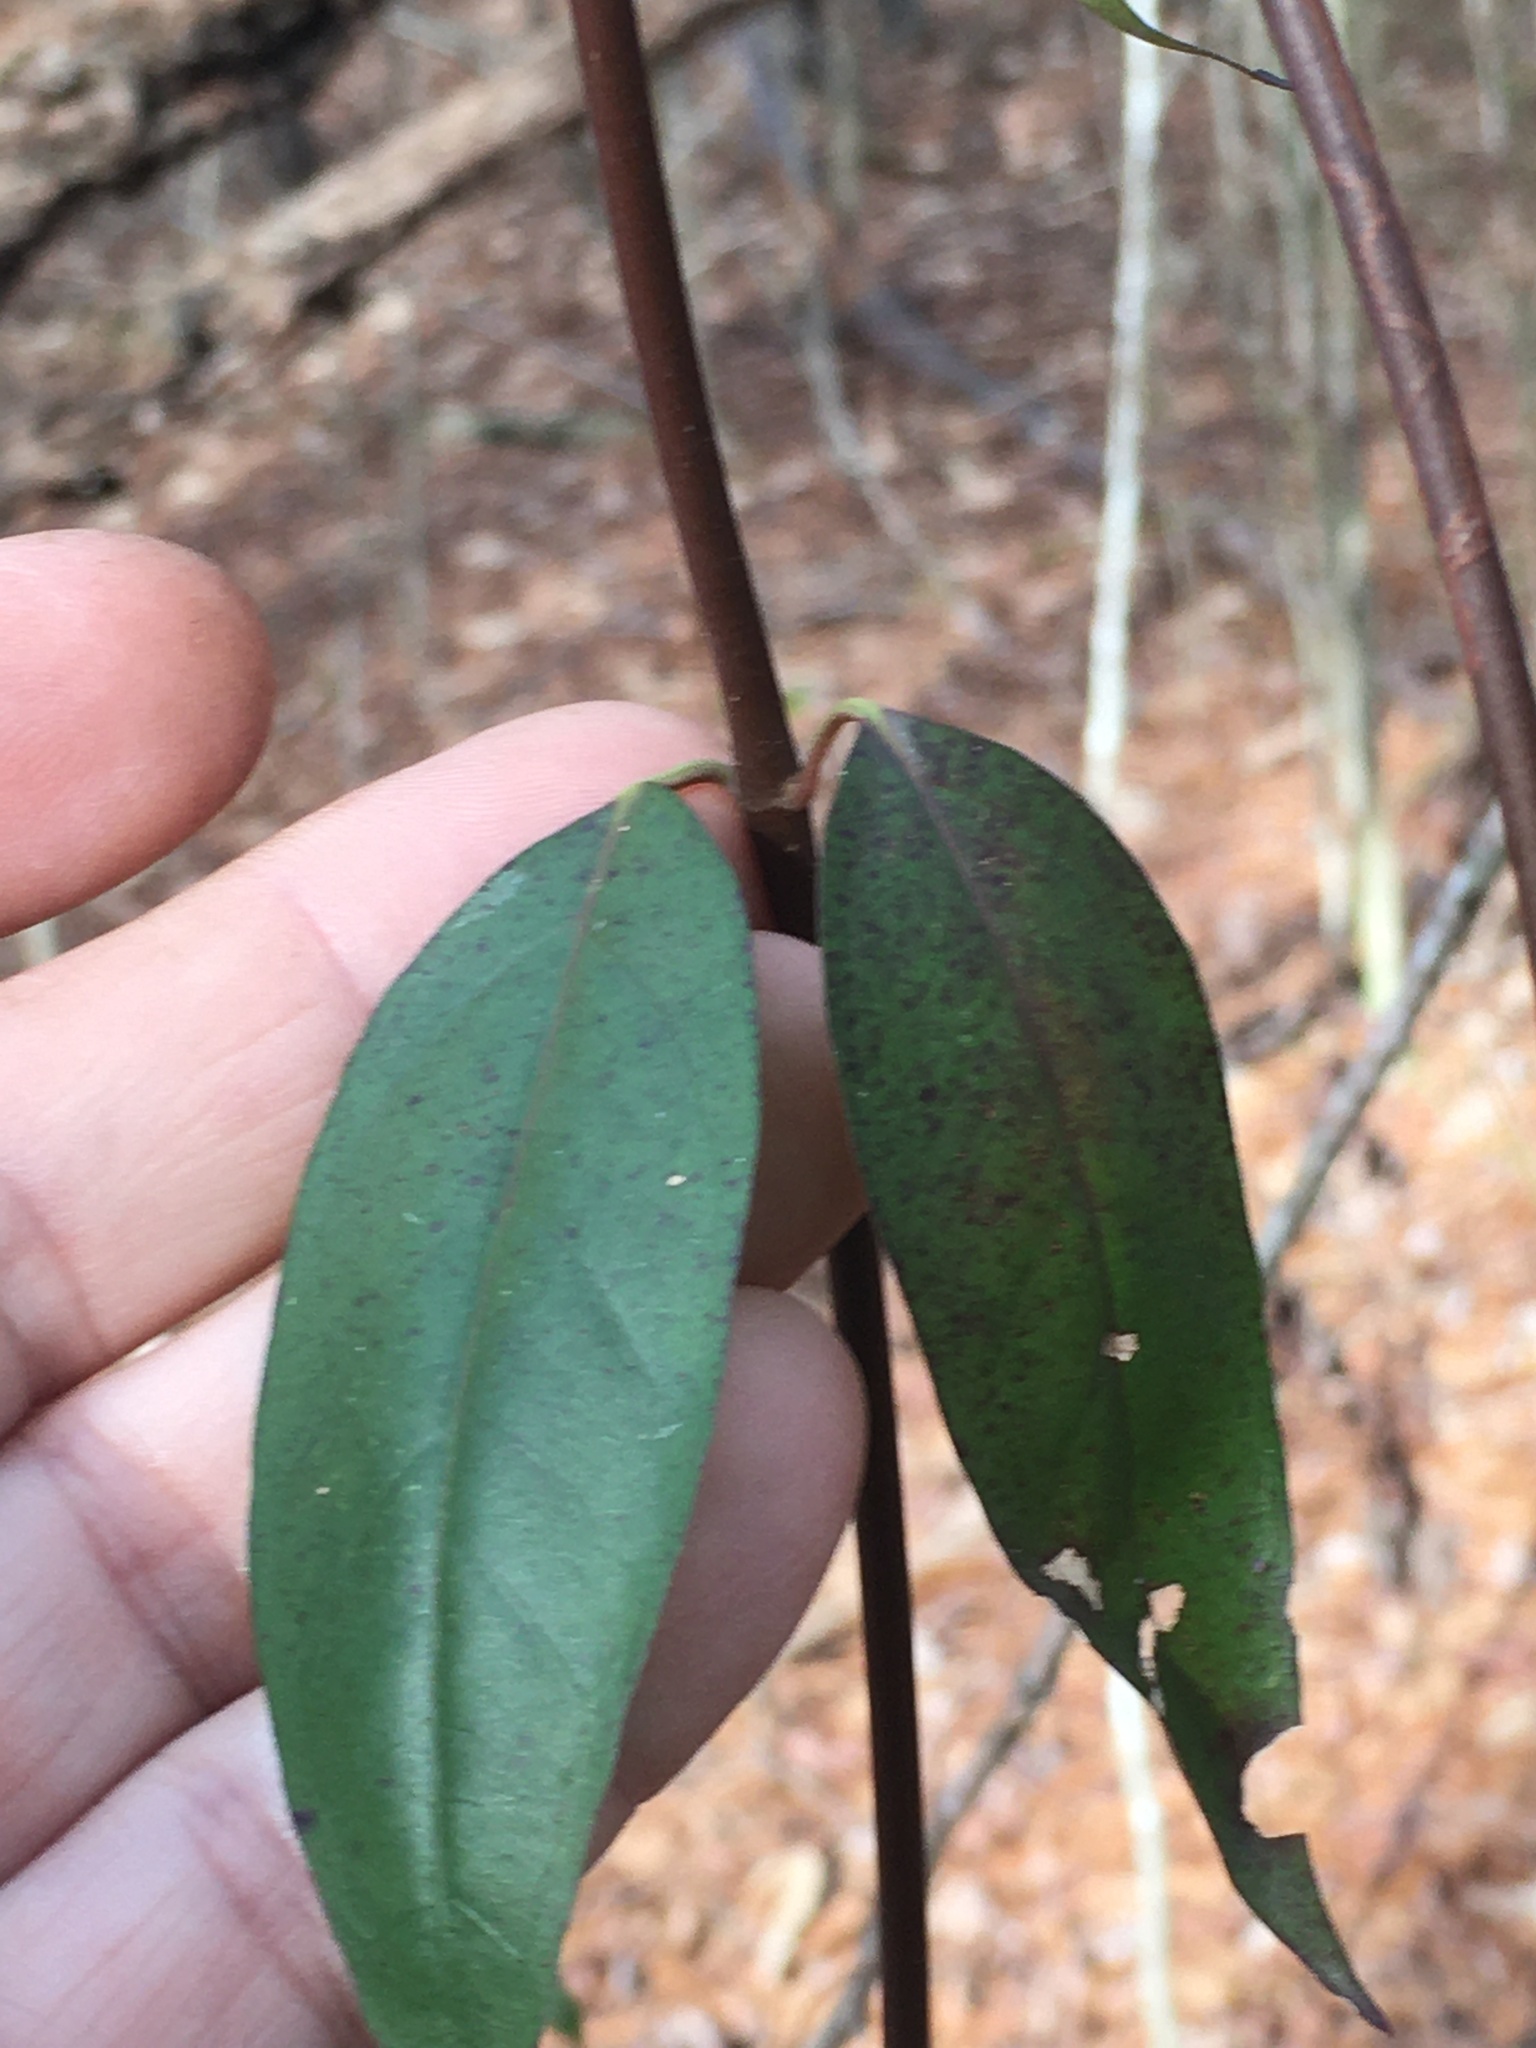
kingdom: Plantae
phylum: Tracheophyta
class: Magnoliopsida
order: Gentianales
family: Gelsemiaceae
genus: Gelsemium
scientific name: Gelsemium sempervirens
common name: Carolina-jasmine
